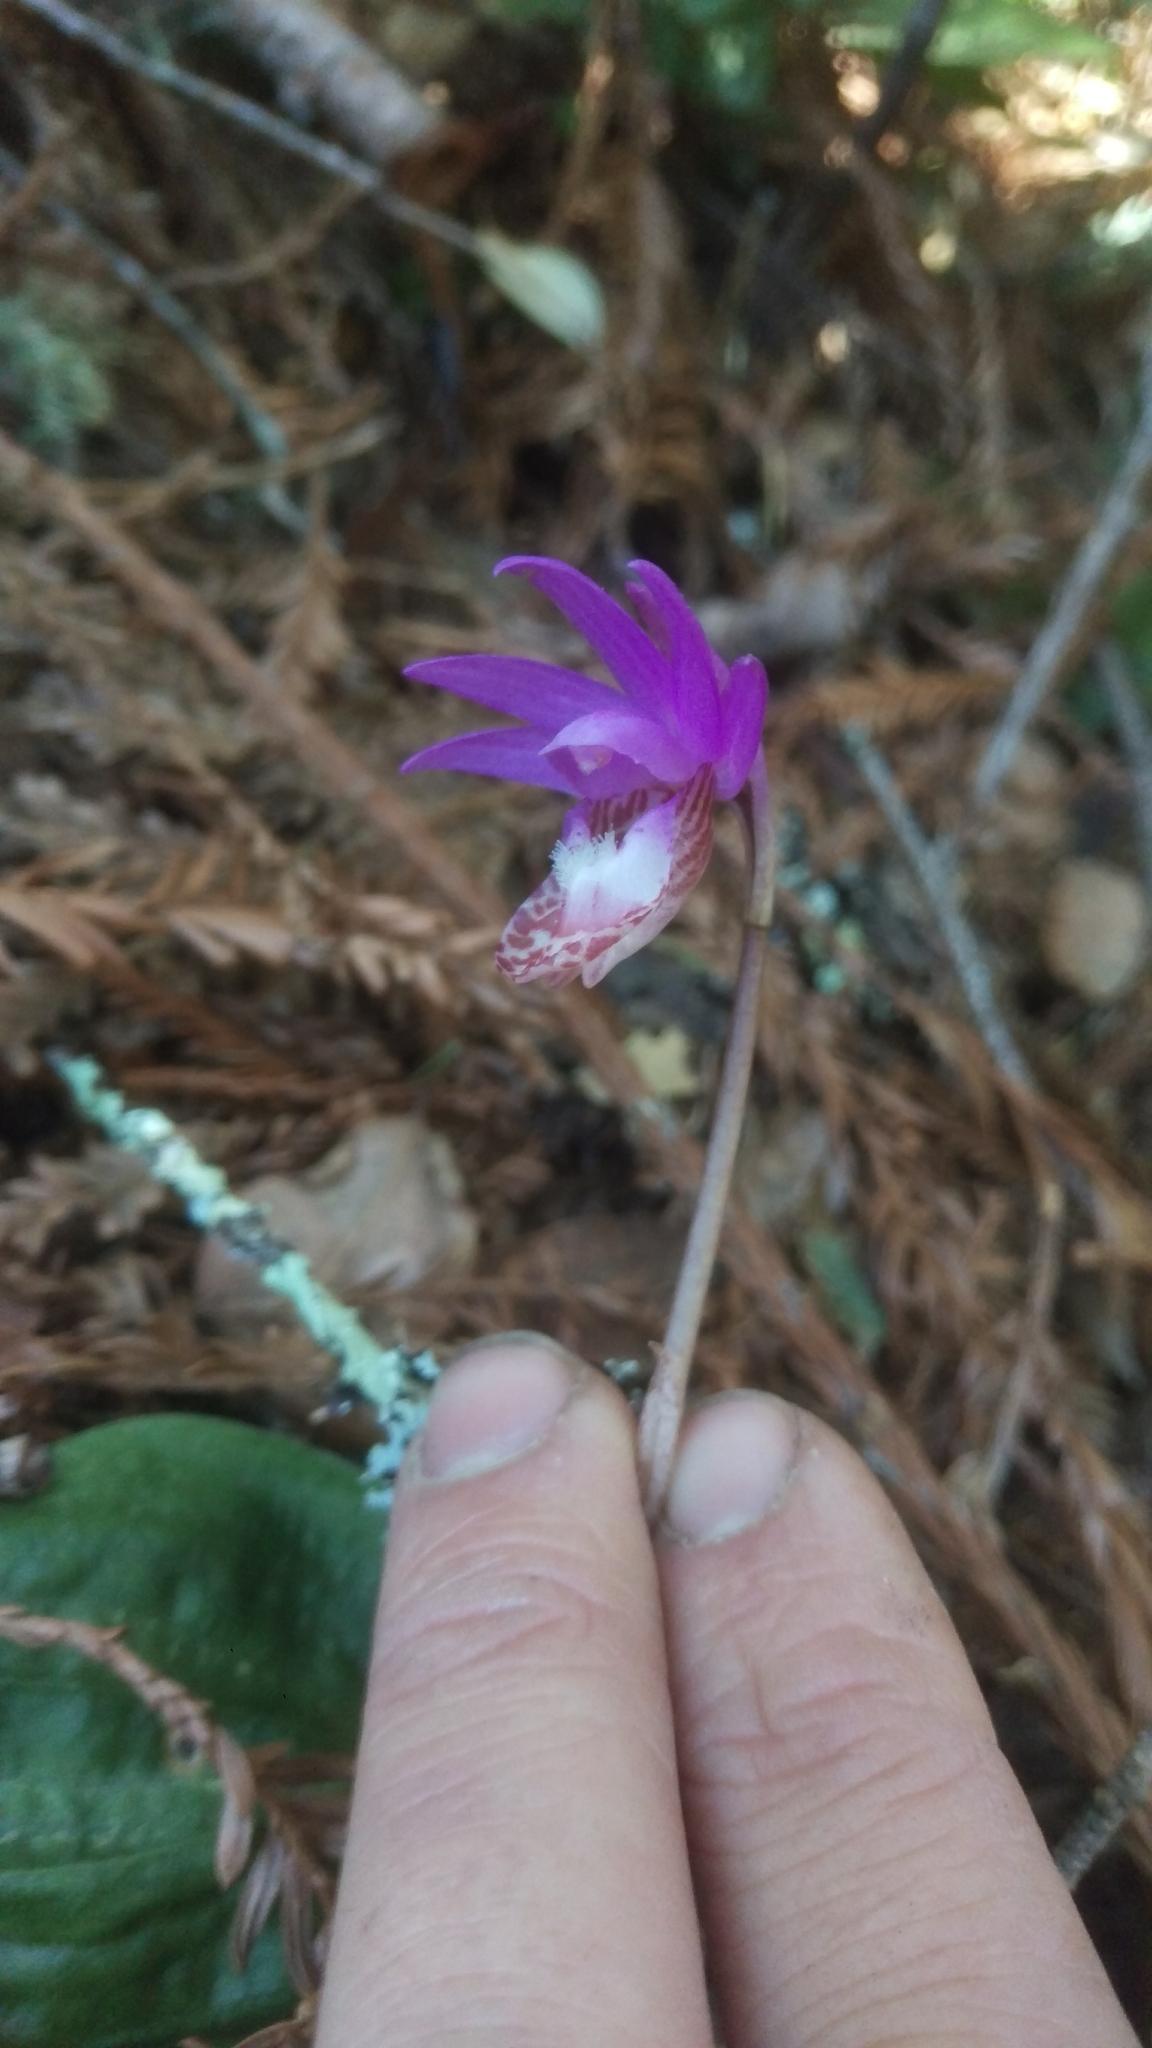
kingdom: Plantae
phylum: Tracheophyta
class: Liliopsida
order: Asparagales
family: Orchidaceae
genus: Calypso
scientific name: Calypso bulbosa
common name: Calypso
